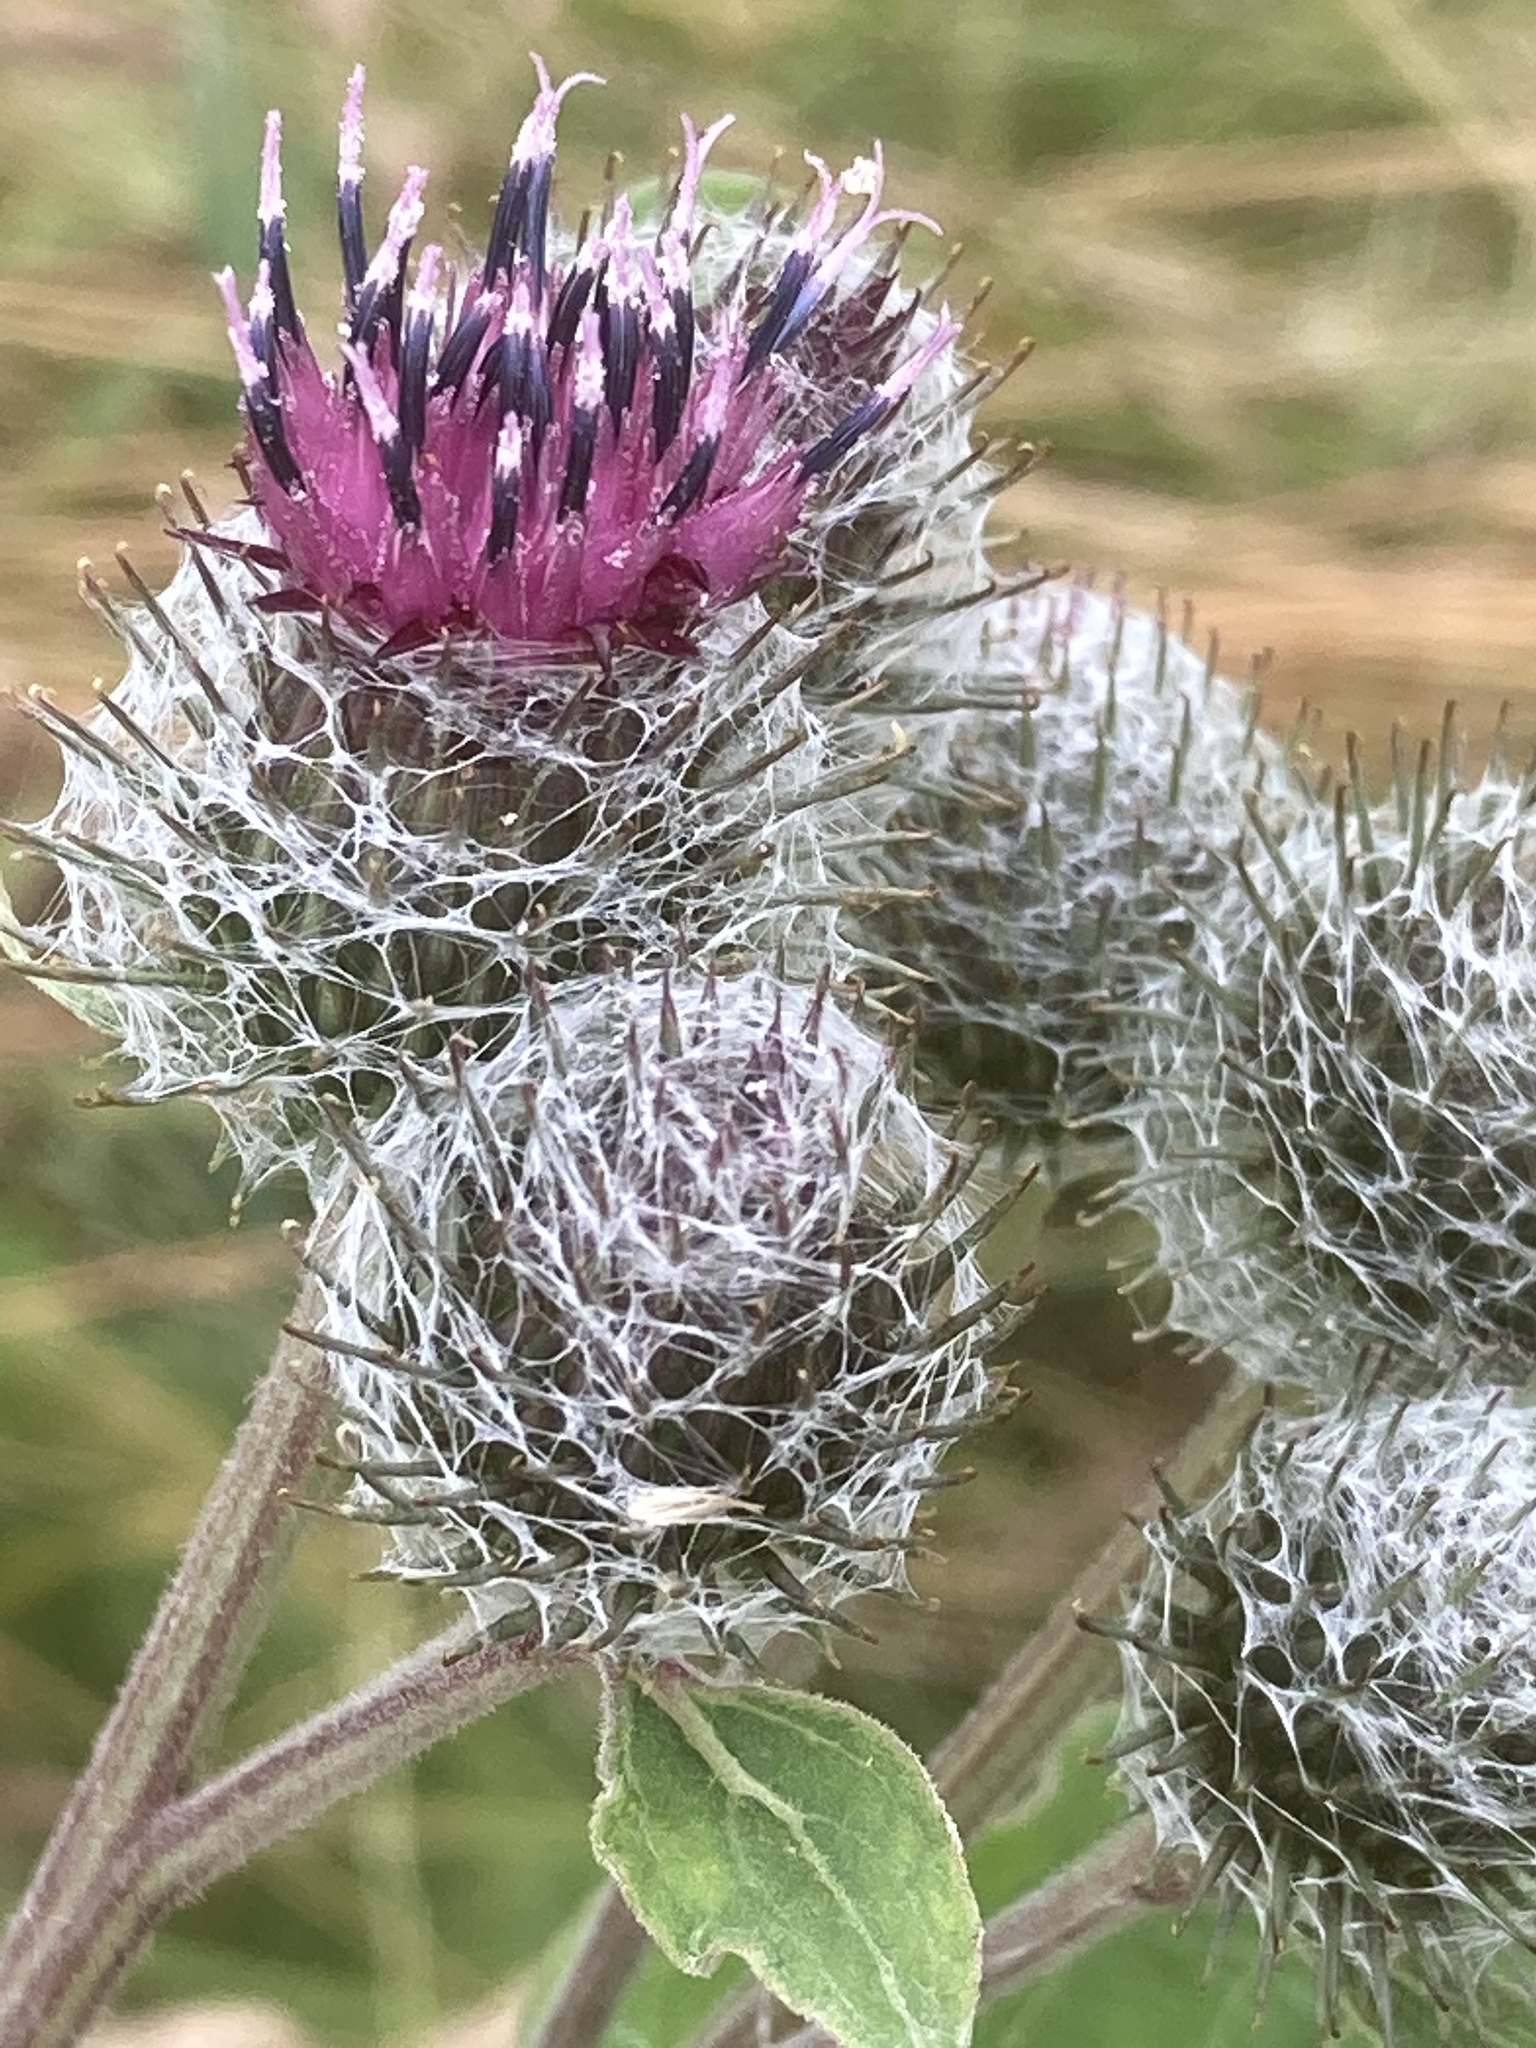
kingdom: Plantae
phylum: Tracheophyta
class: Magnoliopsida
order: Asterales
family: Asteraceae
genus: Arctium
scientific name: Arctium tomentosum
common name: Woolly burdock
